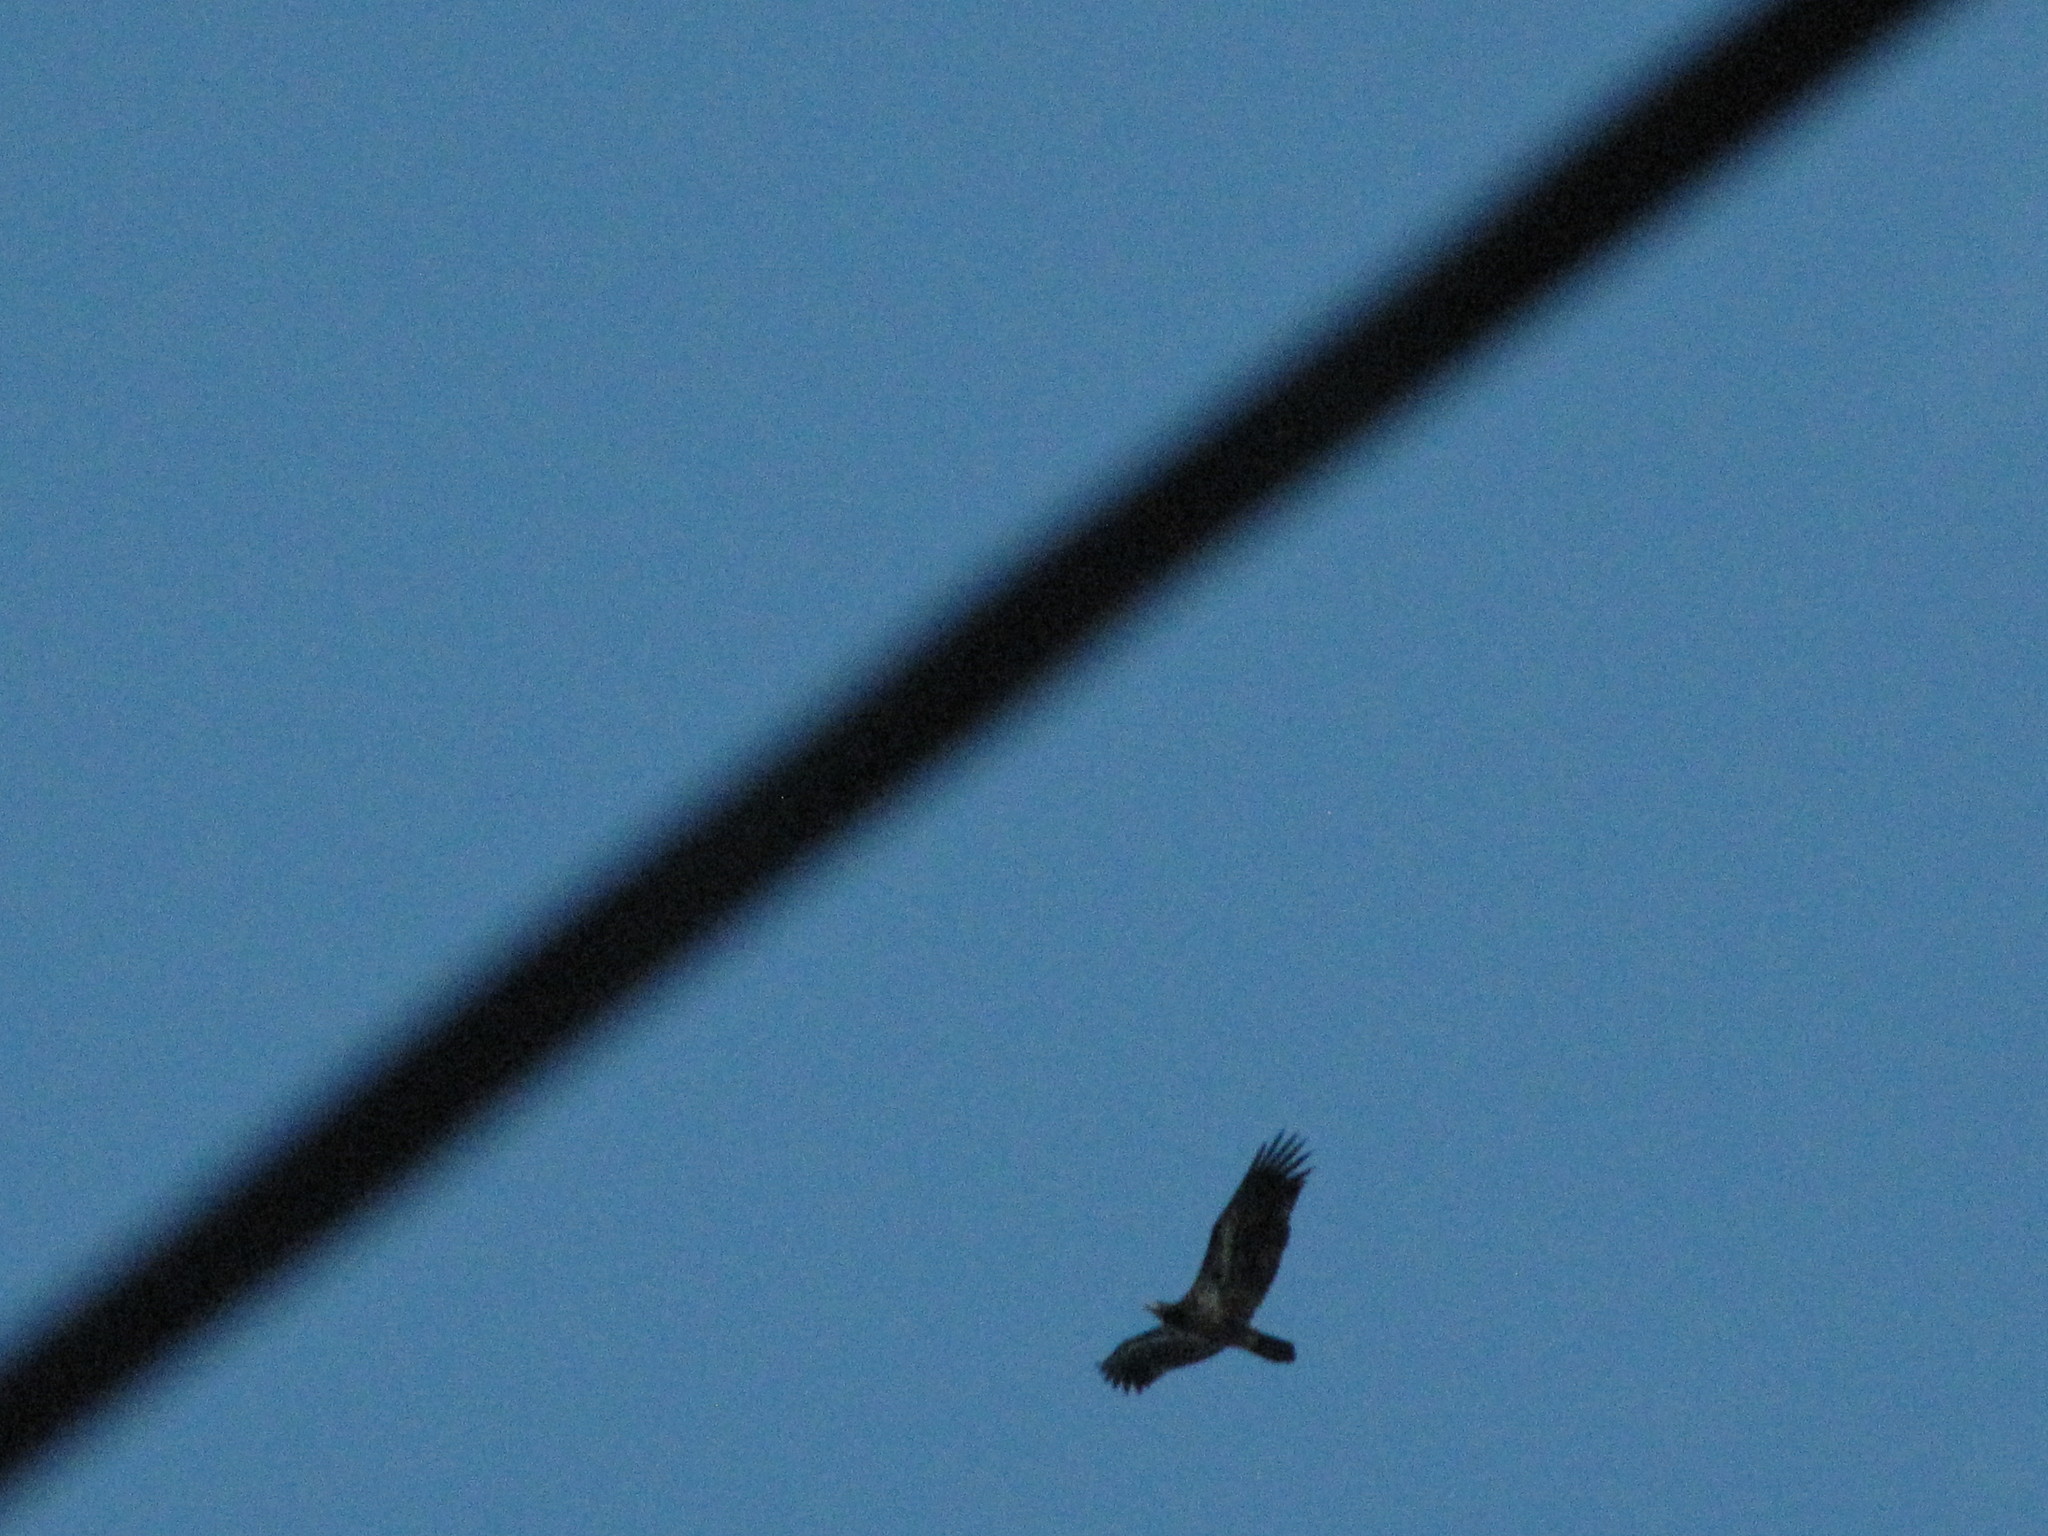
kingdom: Animalia
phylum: Chordata
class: Aves
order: Accipitriformes
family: Accipitridae
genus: Haliaeetus
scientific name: Haliaeetus leucocephalus
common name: Bald eagle
